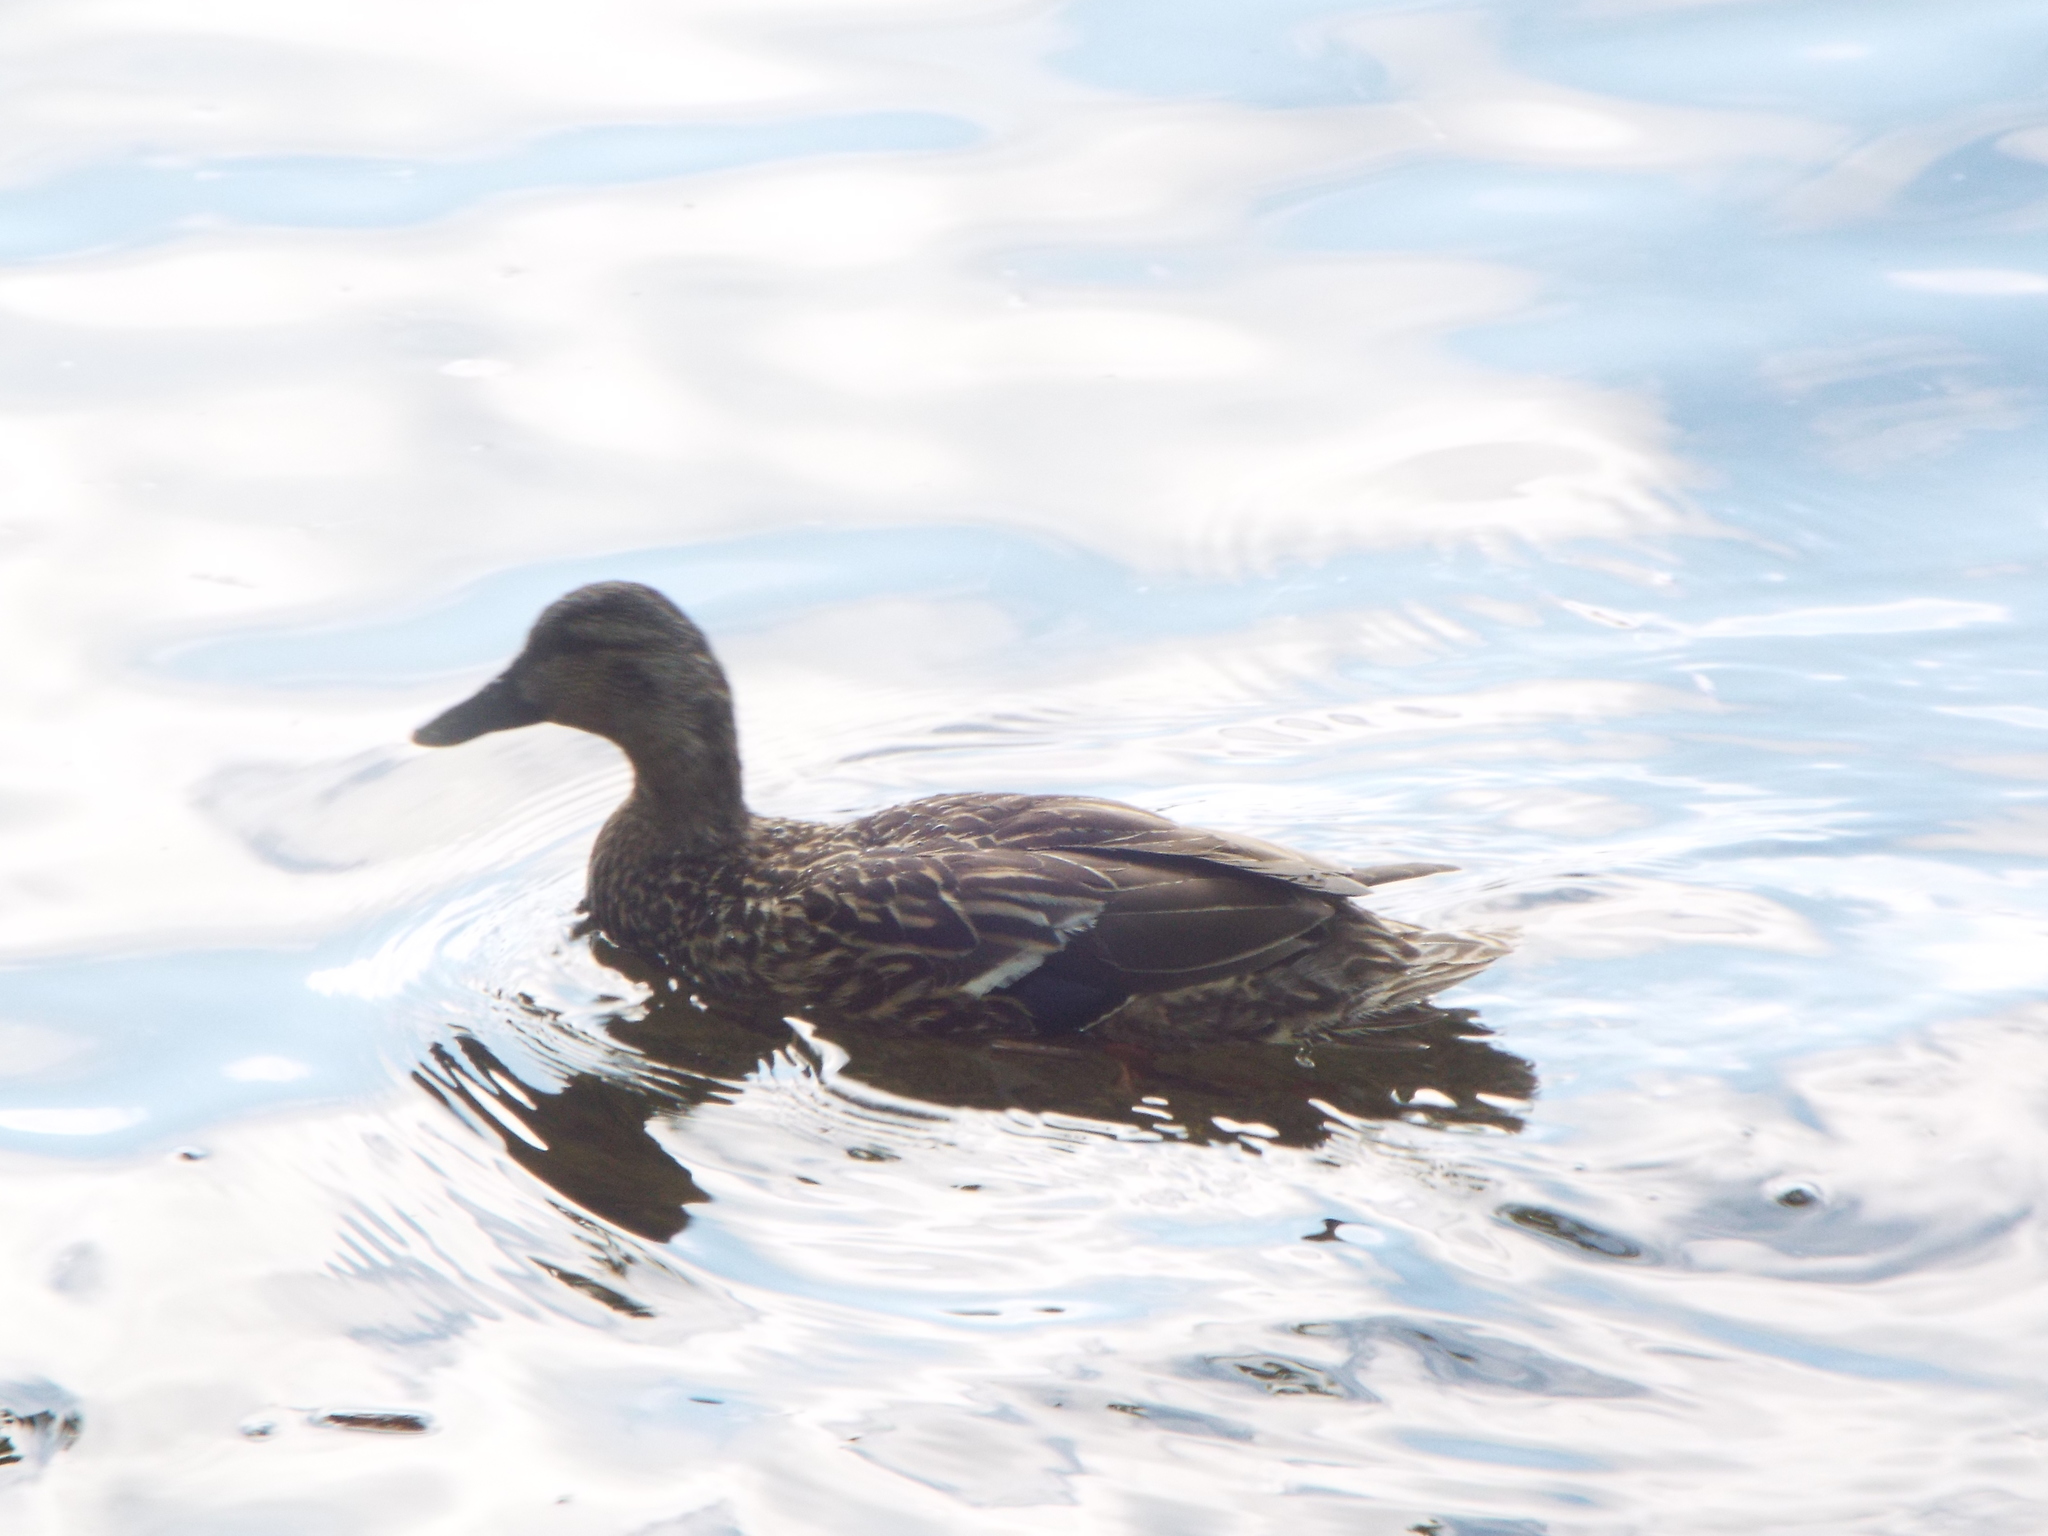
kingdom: Animalia
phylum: Chordata
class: Aves
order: Anseriformes
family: Anatidae
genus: Anas
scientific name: Anas platyrhynchos
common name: Mallard
